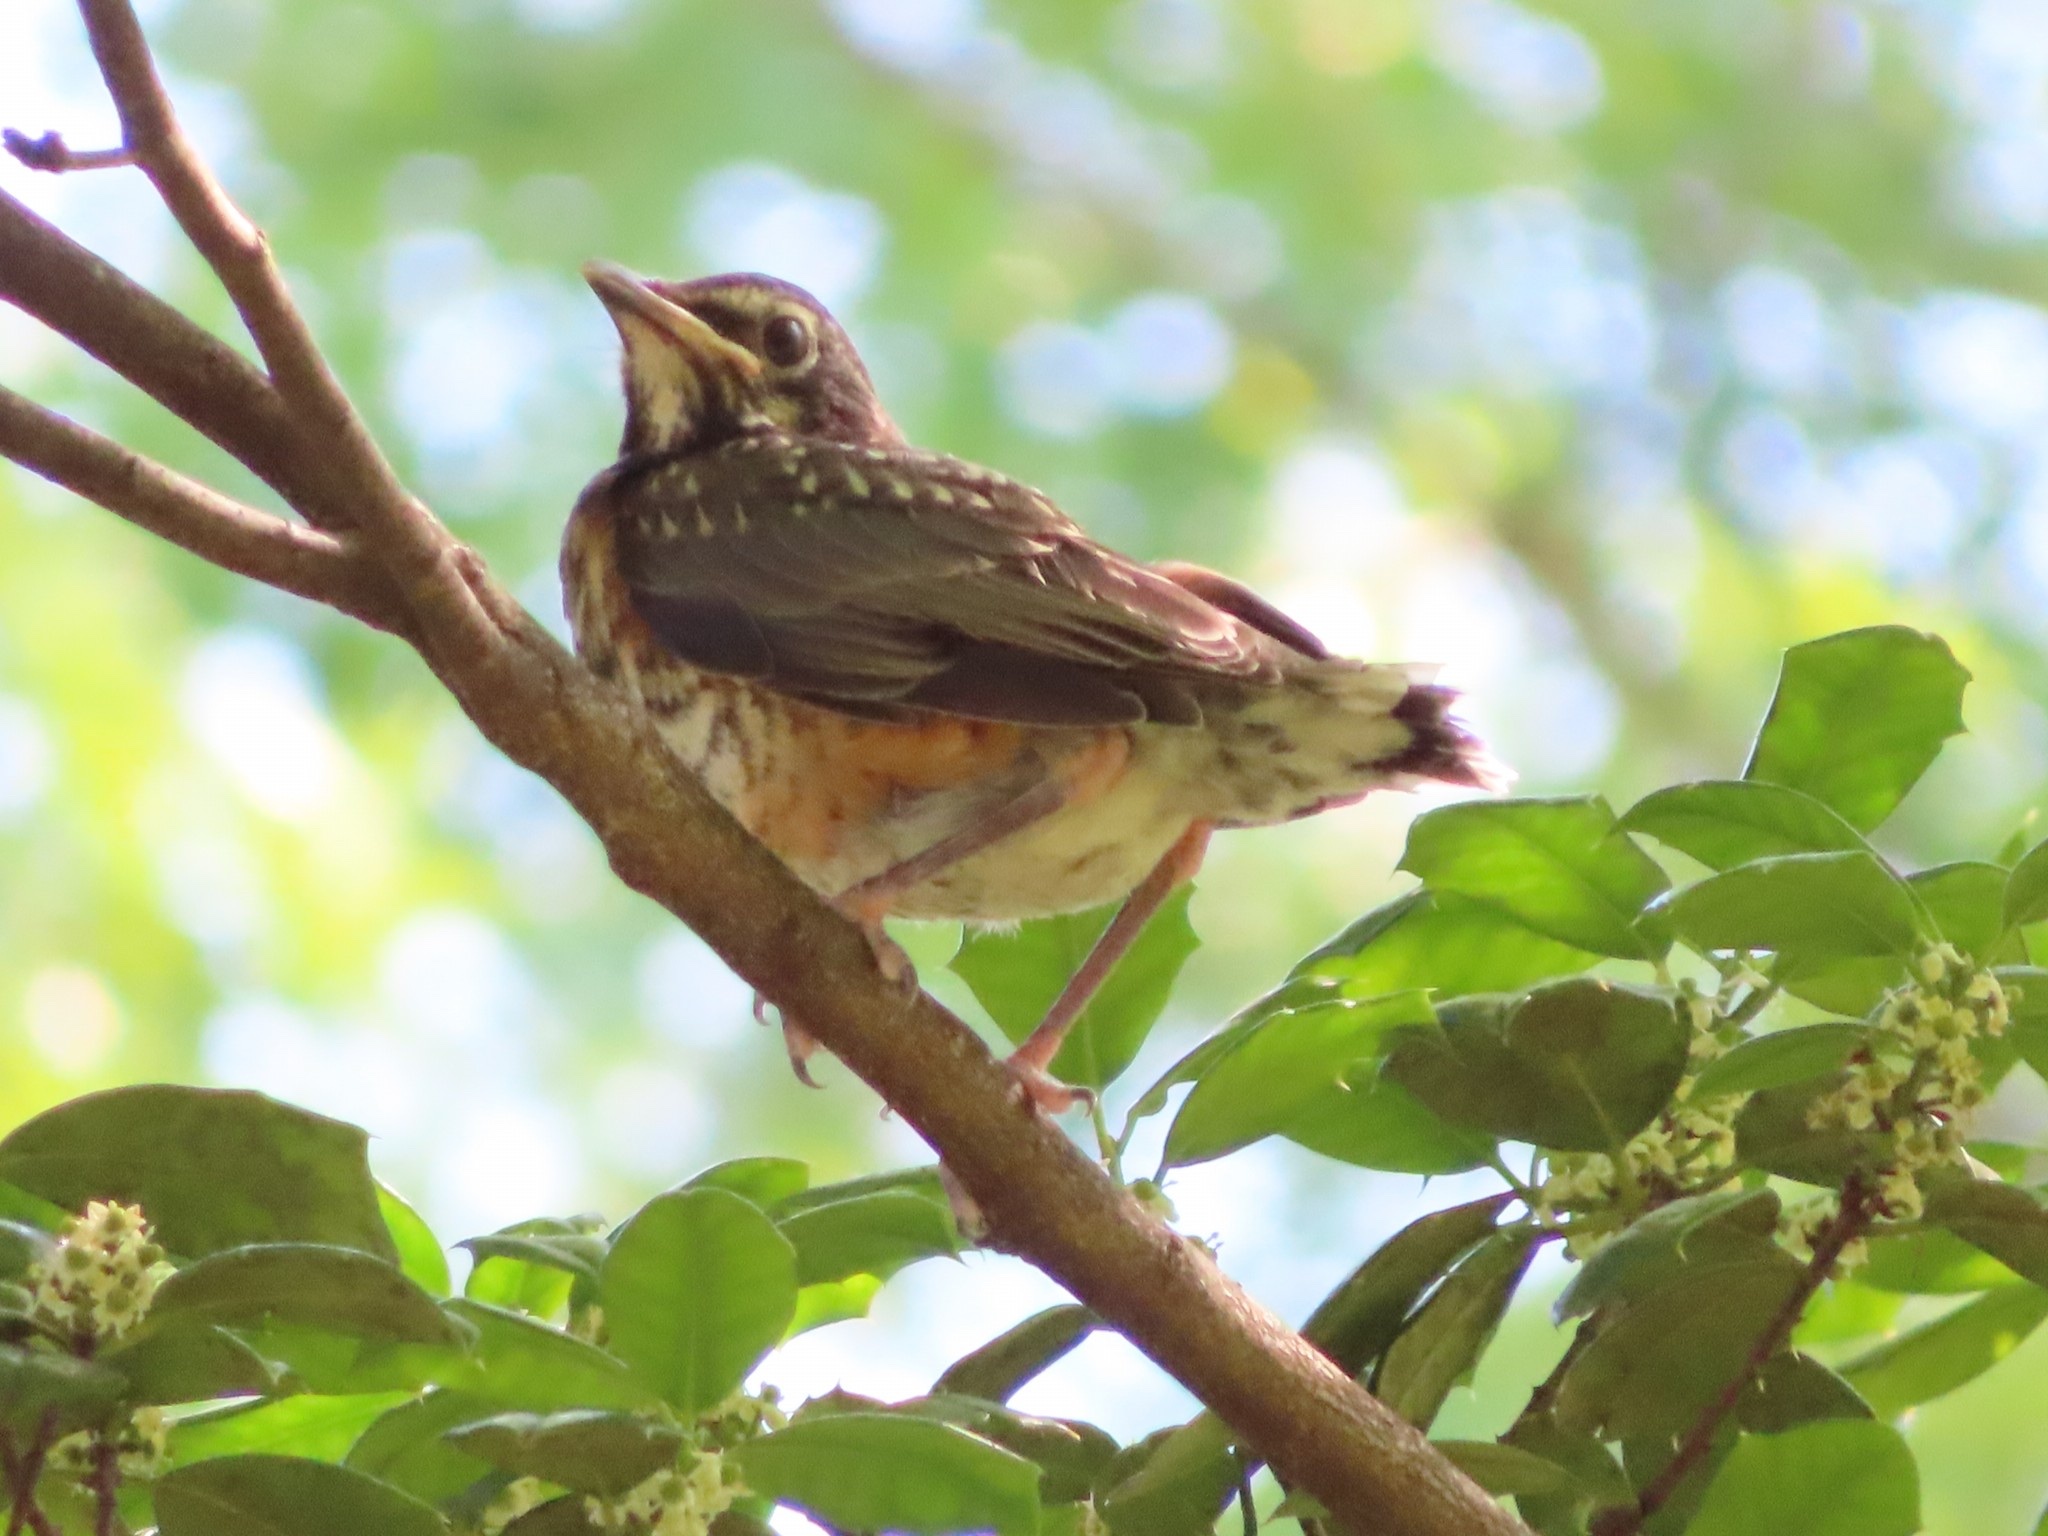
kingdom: Animalia
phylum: Chordata
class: Aves
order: Passeriformes
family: Turdidae
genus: Turdus
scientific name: Turdus migratorius
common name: American robin
